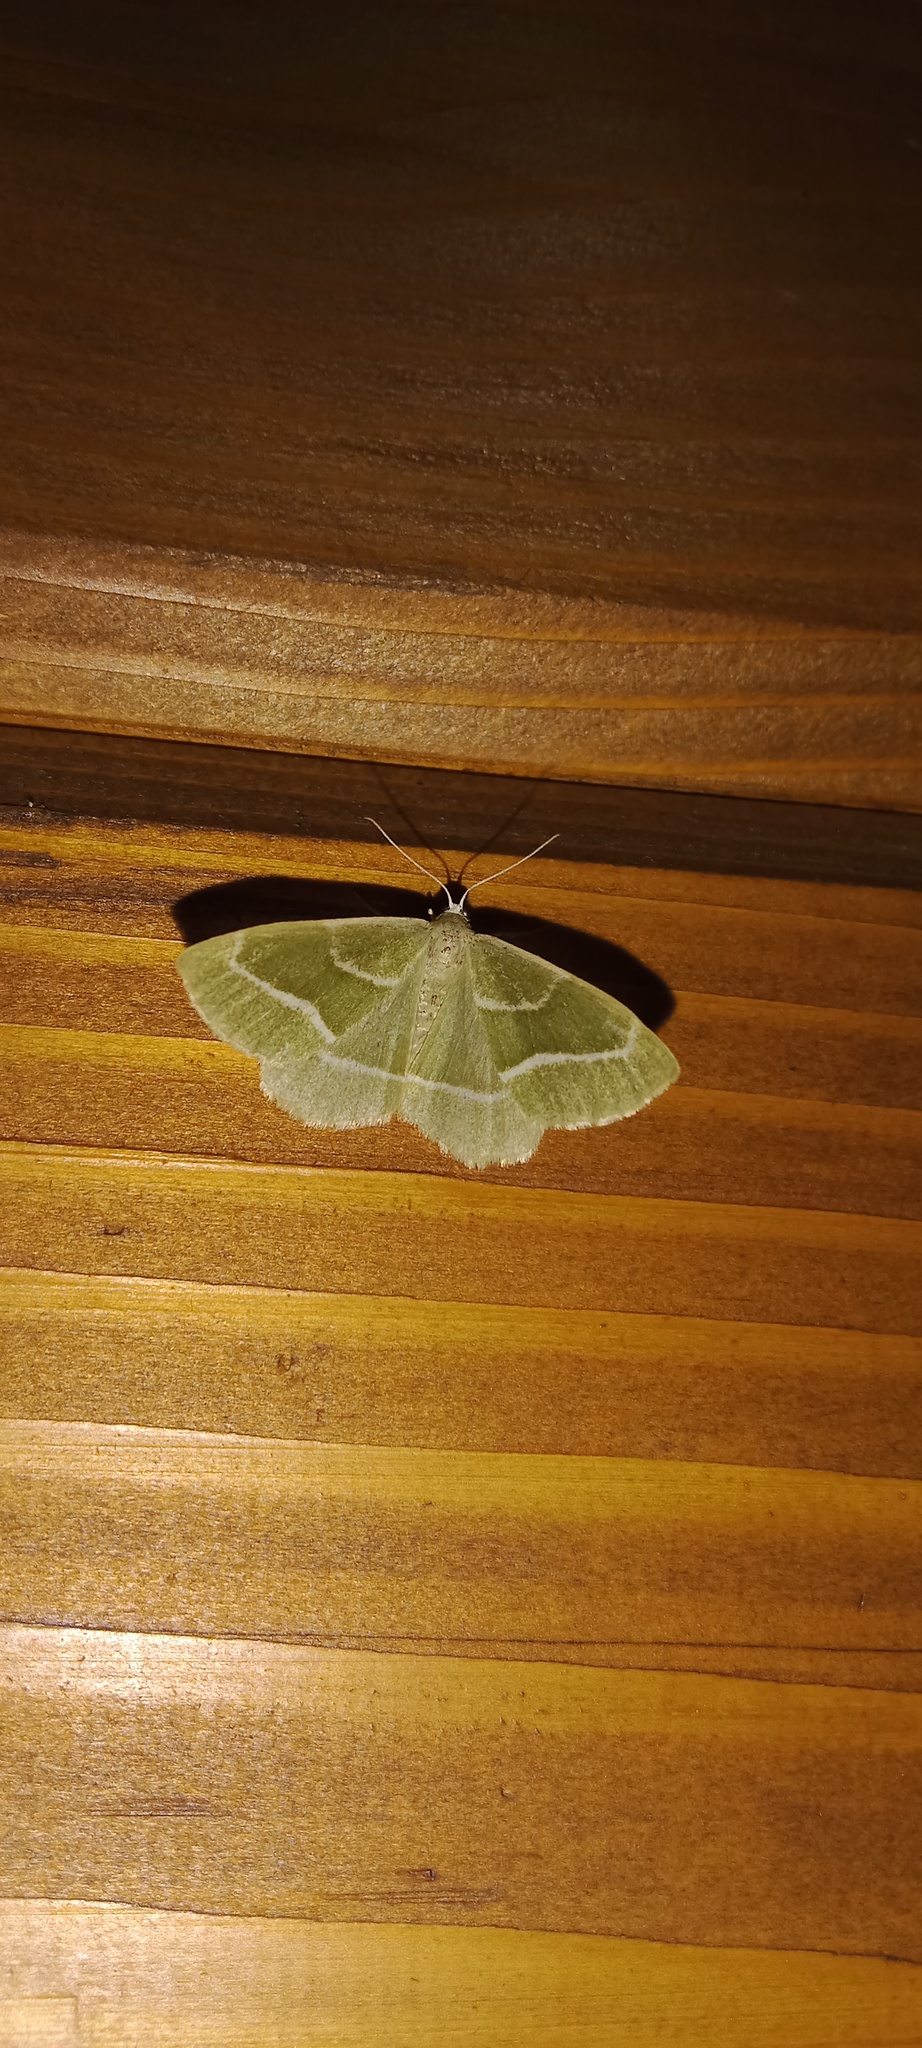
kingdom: Animalia
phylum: Arthropoda
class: Insecta
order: Lepidoptera
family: Geometridae
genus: Hylaea
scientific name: Hylaea fasciaria
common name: Barred red
